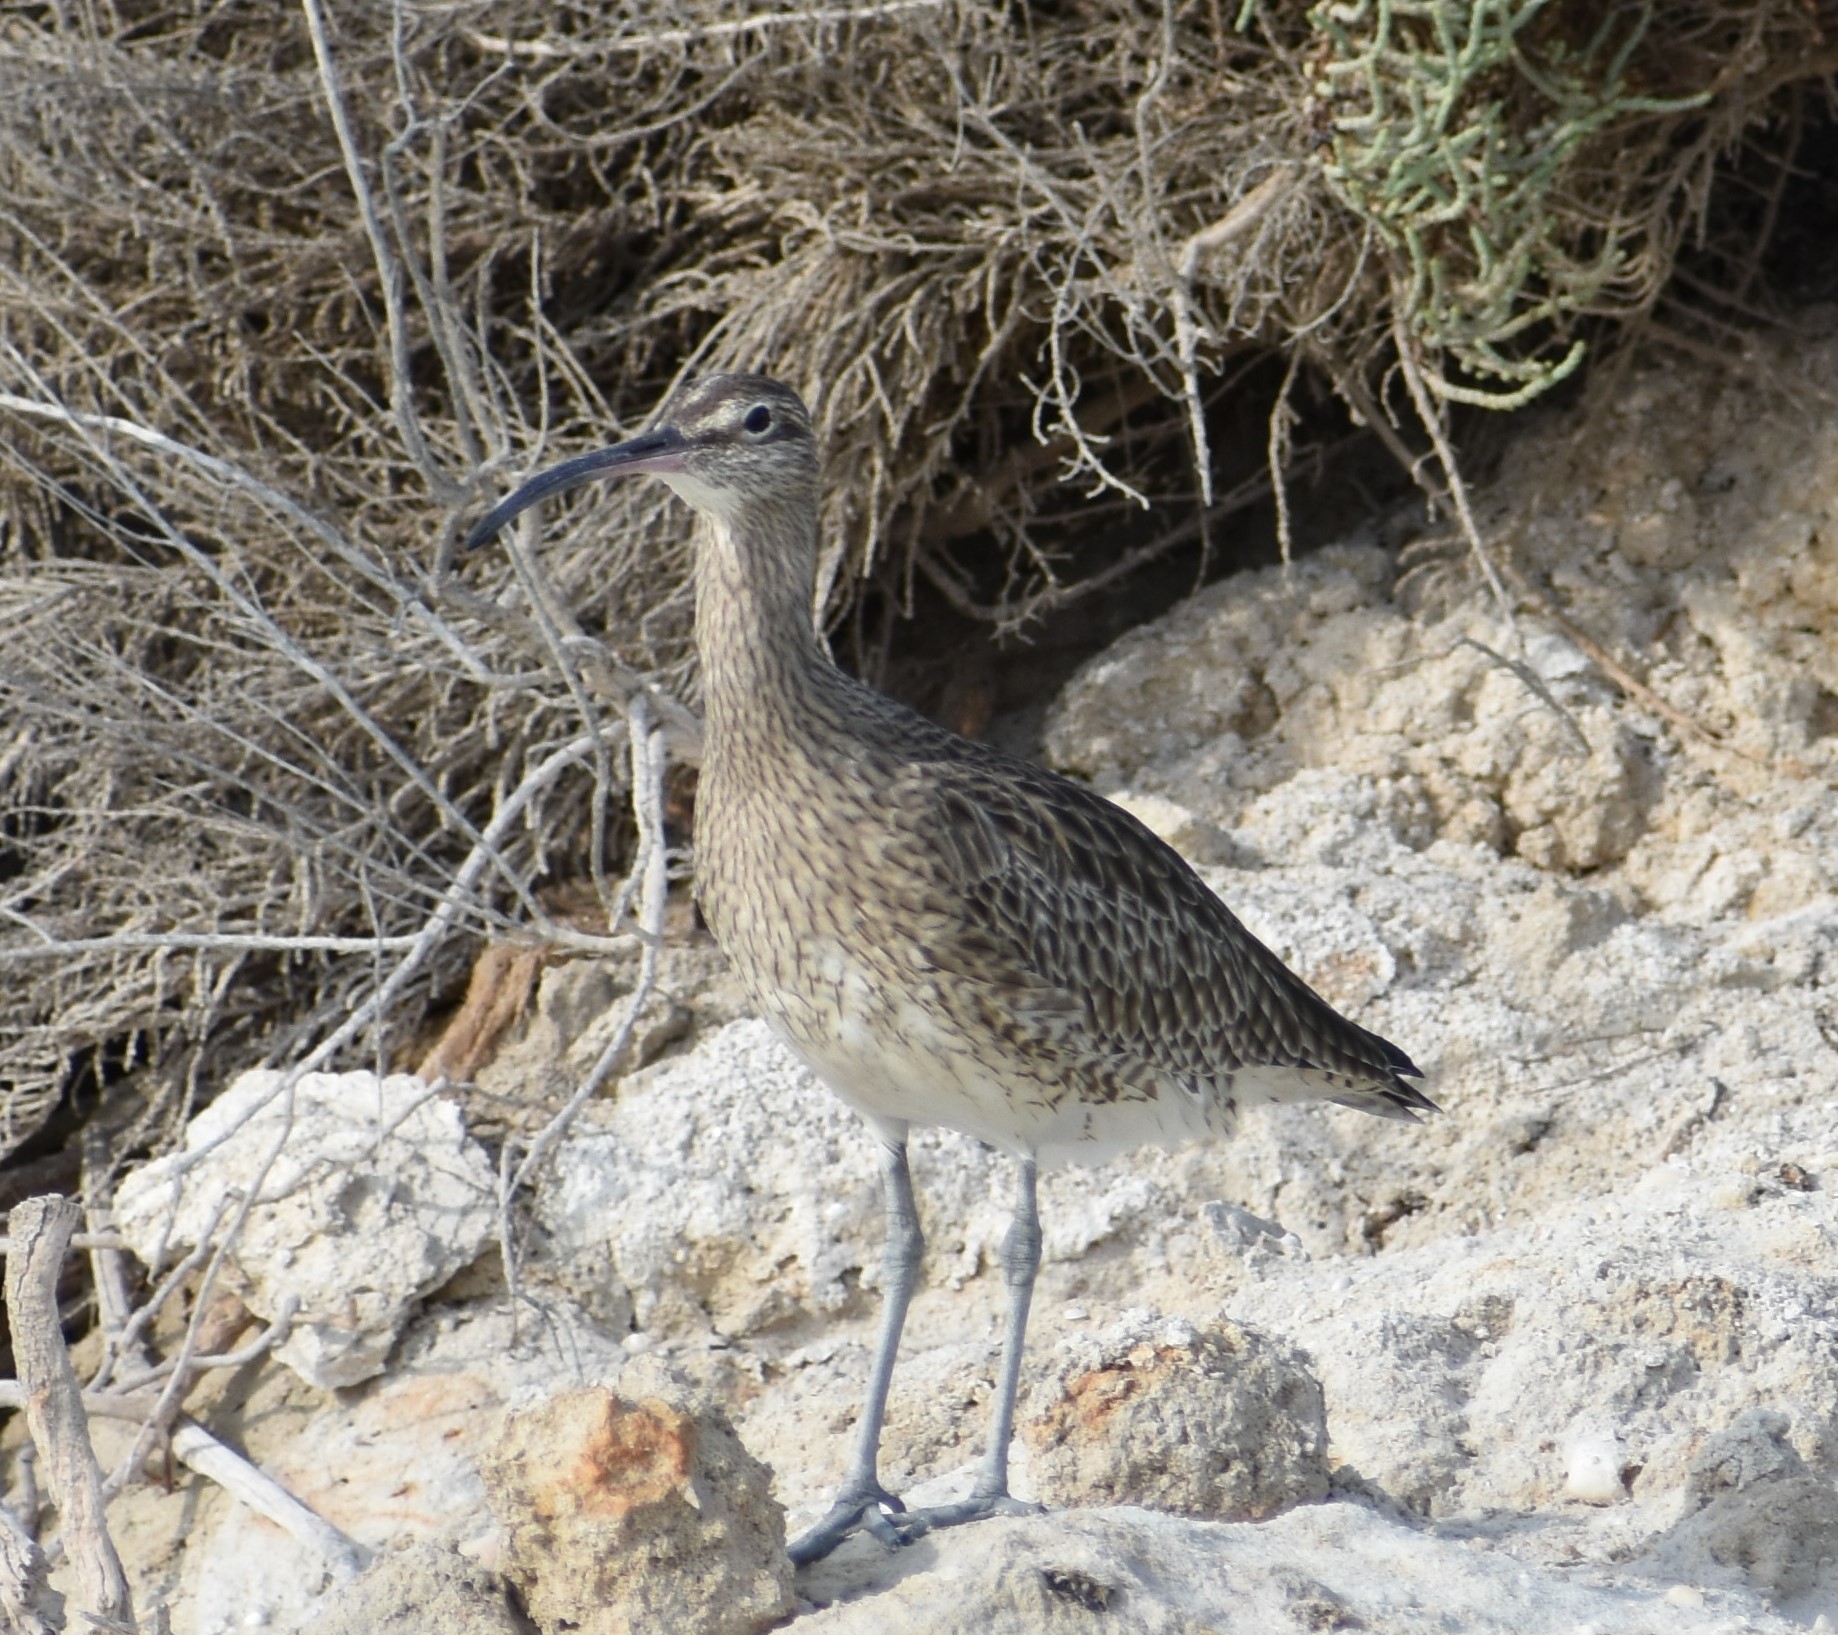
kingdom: Animalia
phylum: Chordata
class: Aves
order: Charadriiformes
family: Scolopacidae
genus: Numenius
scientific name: Numenius phaeopus
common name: Whimbrel
